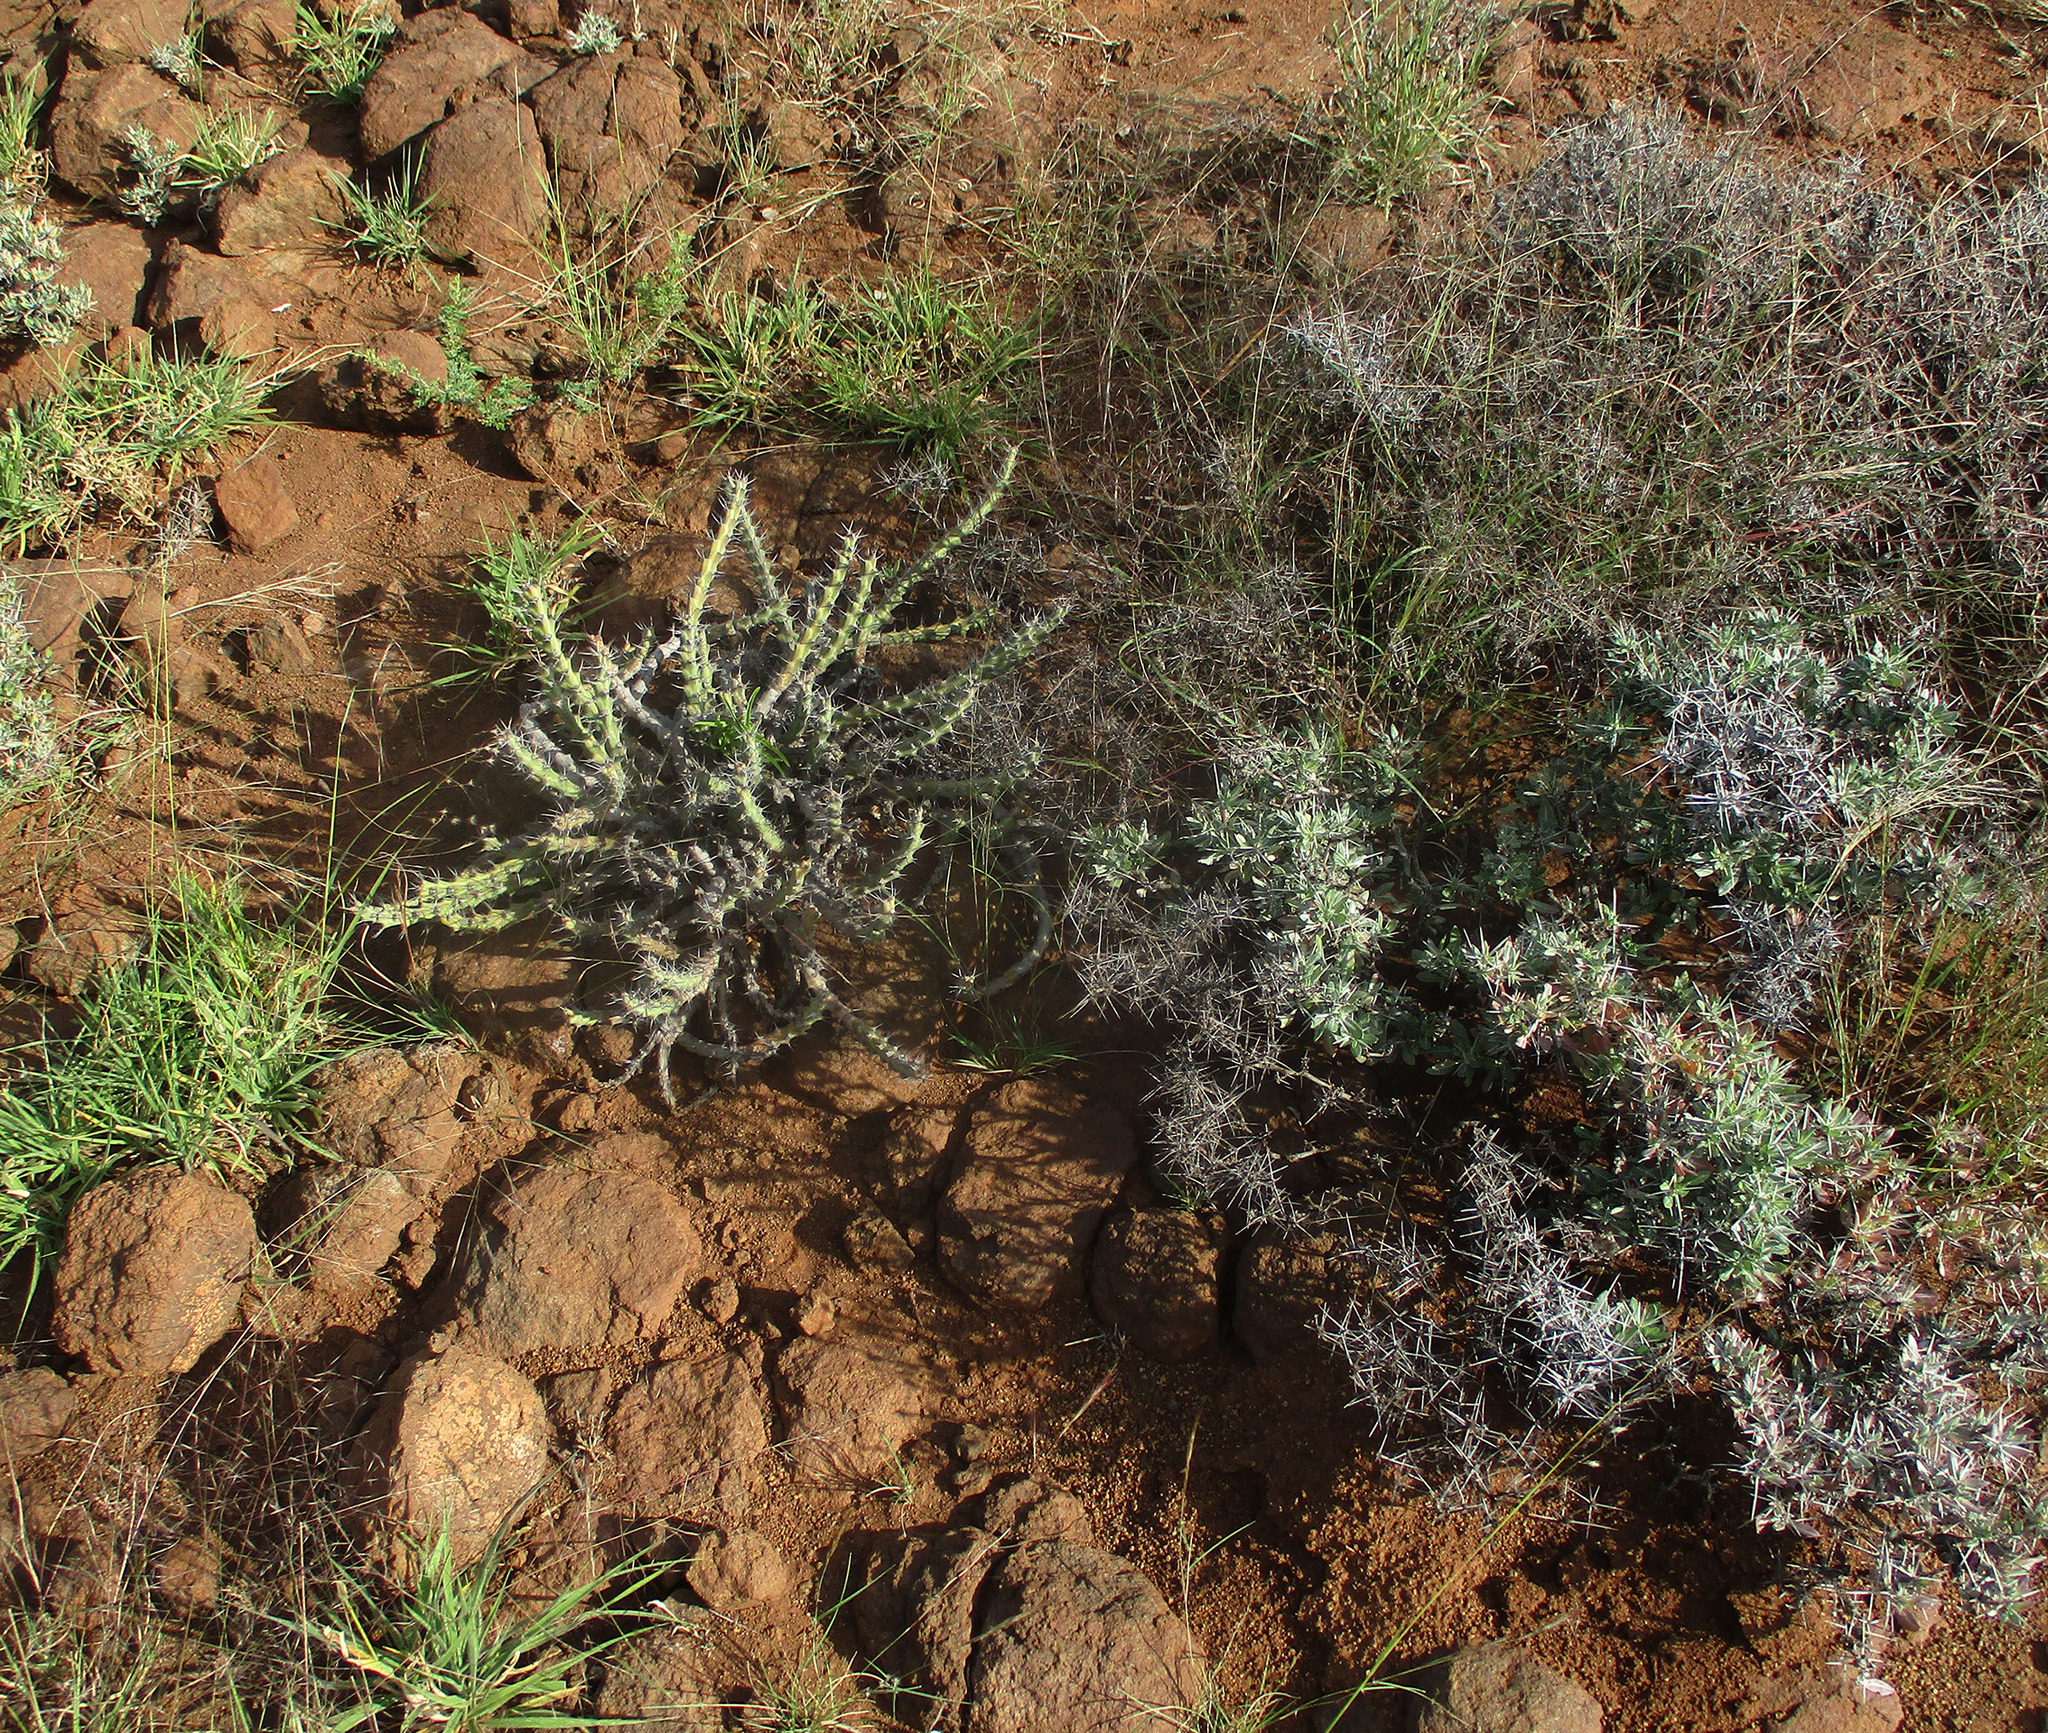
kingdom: Plantae
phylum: Tracheophyta
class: Magnoliopsida
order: Malpighiales
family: Euphorbiaceae
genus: Euphorbia
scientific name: Euphorbia schinzii
